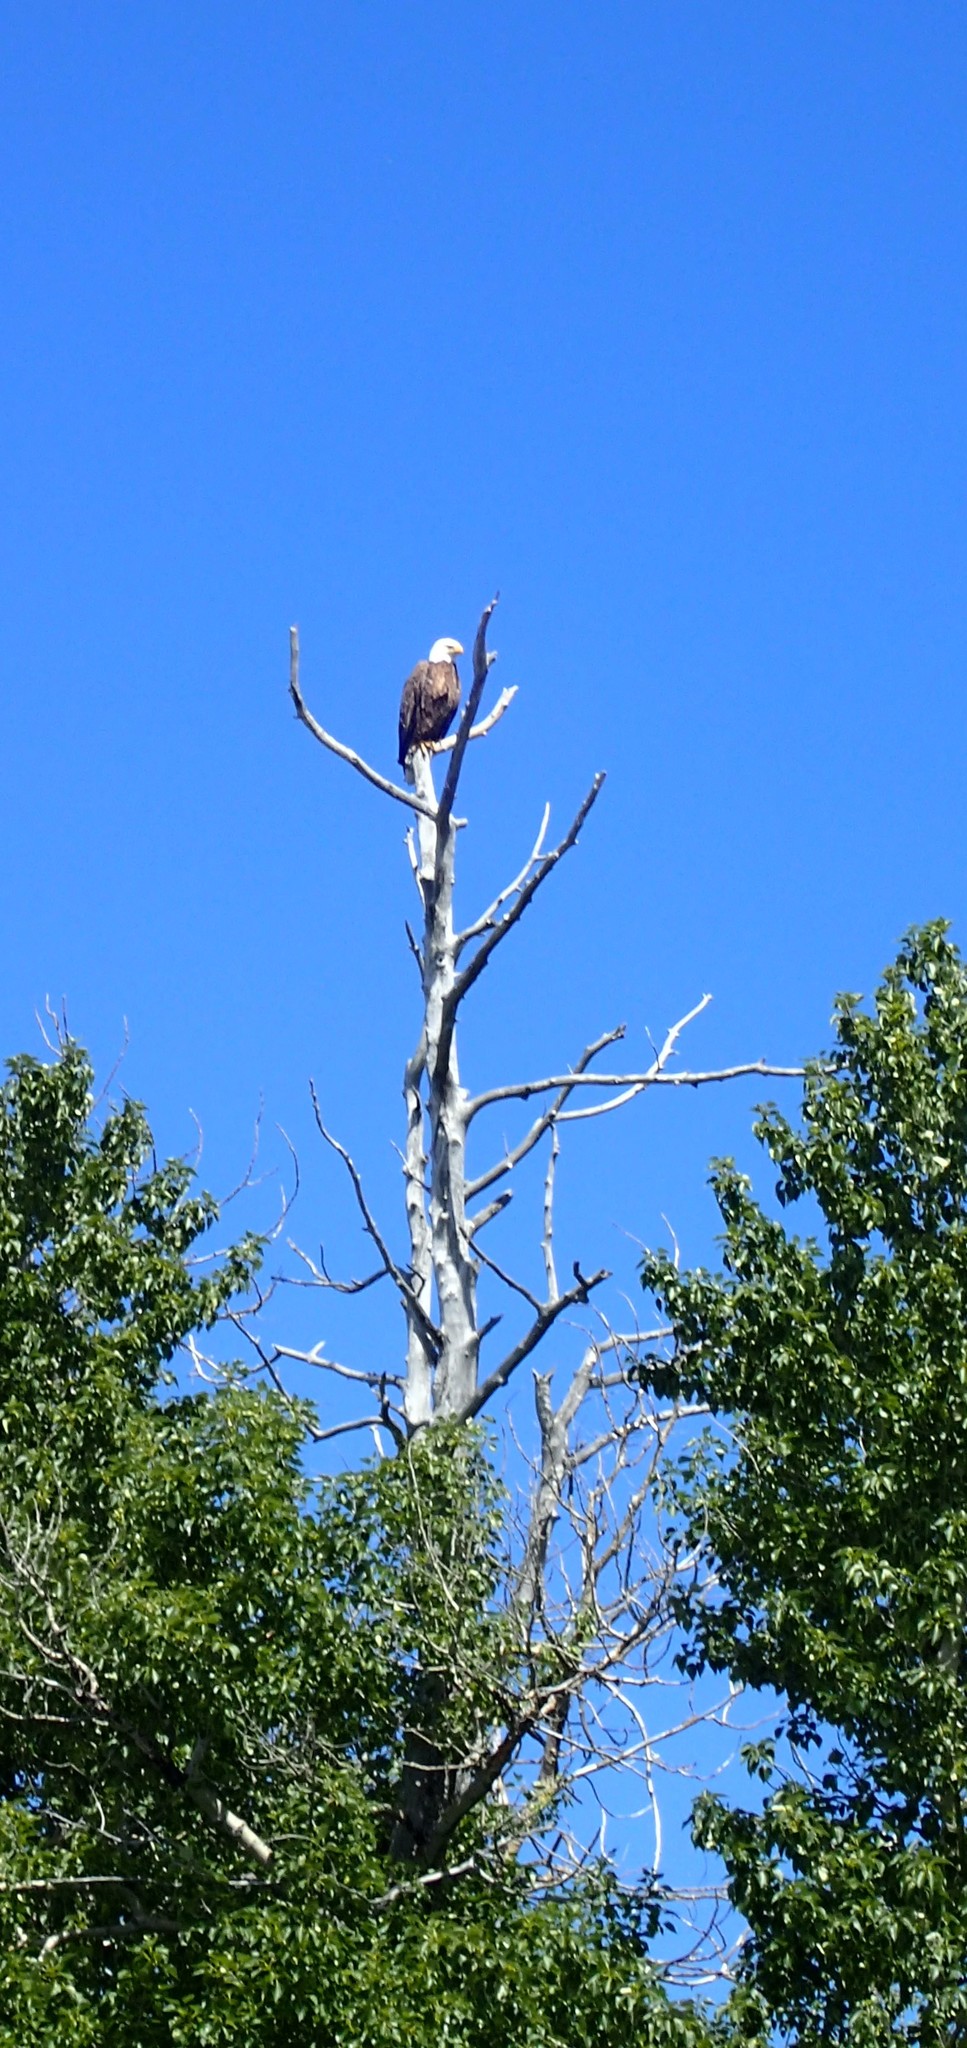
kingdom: Animalia
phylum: Chordata
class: Aves
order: Accipitriformes
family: Accipitridae
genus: Haliaeetus
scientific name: Haliaeetus leucocephalus
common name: Bald eagle
